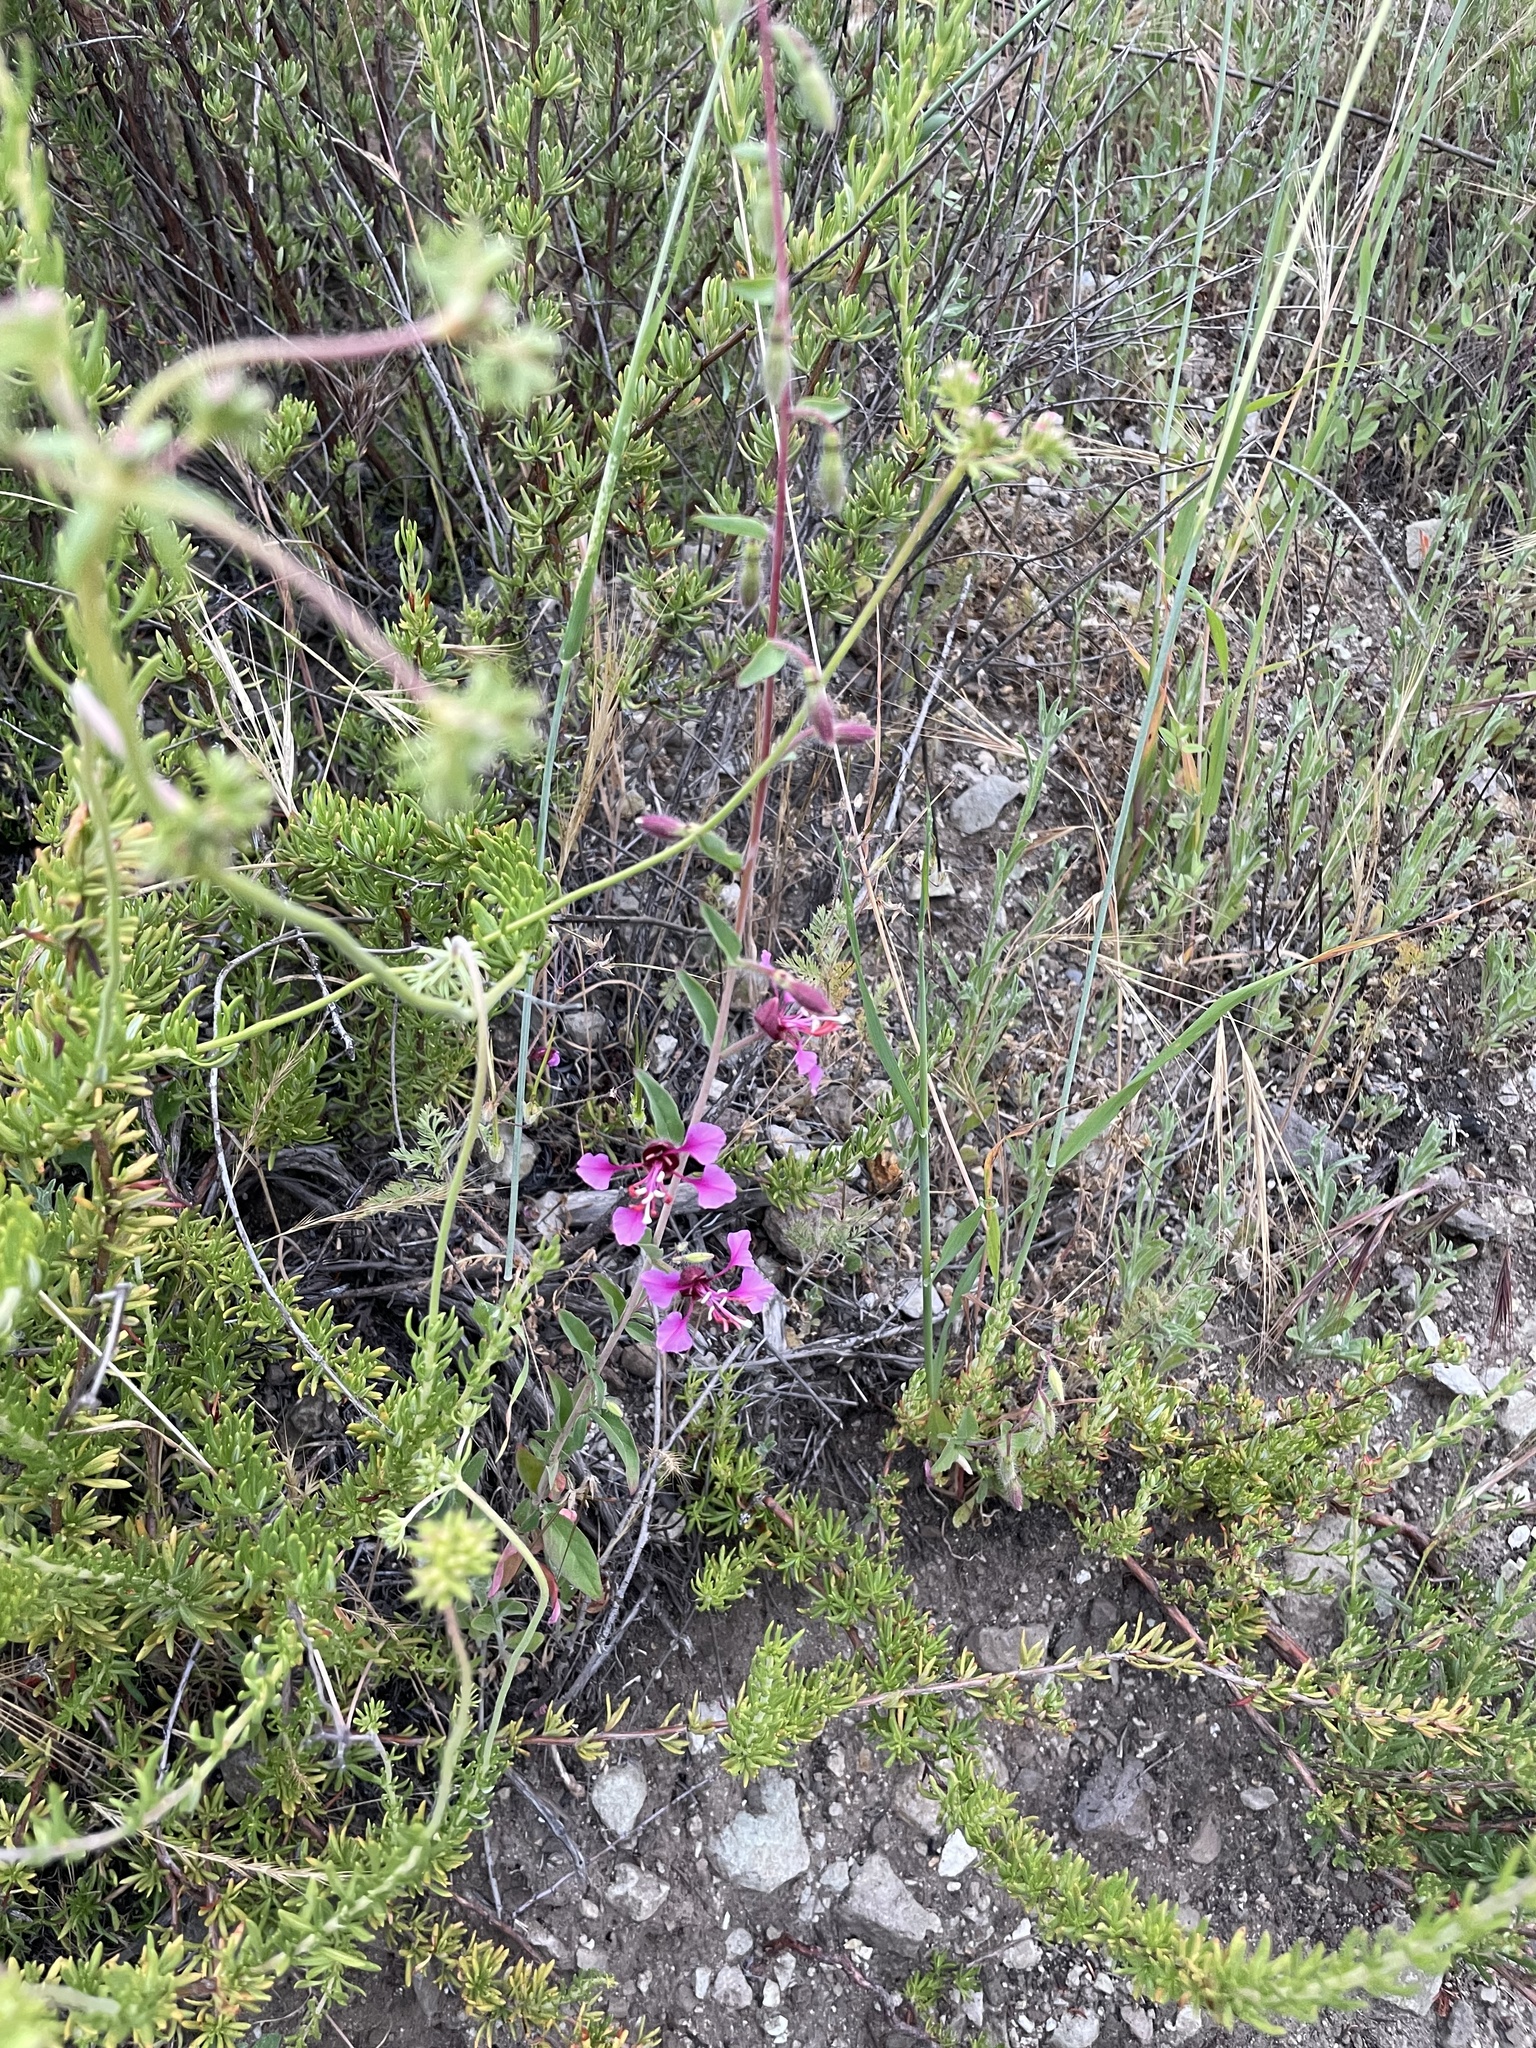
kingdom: Plantae
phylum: Tracheophyta
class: Magnoliopsida
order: Myrtales
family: Onagraceae
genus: Clarkia
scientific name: Clarkia unguiculata
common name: Clarkia
